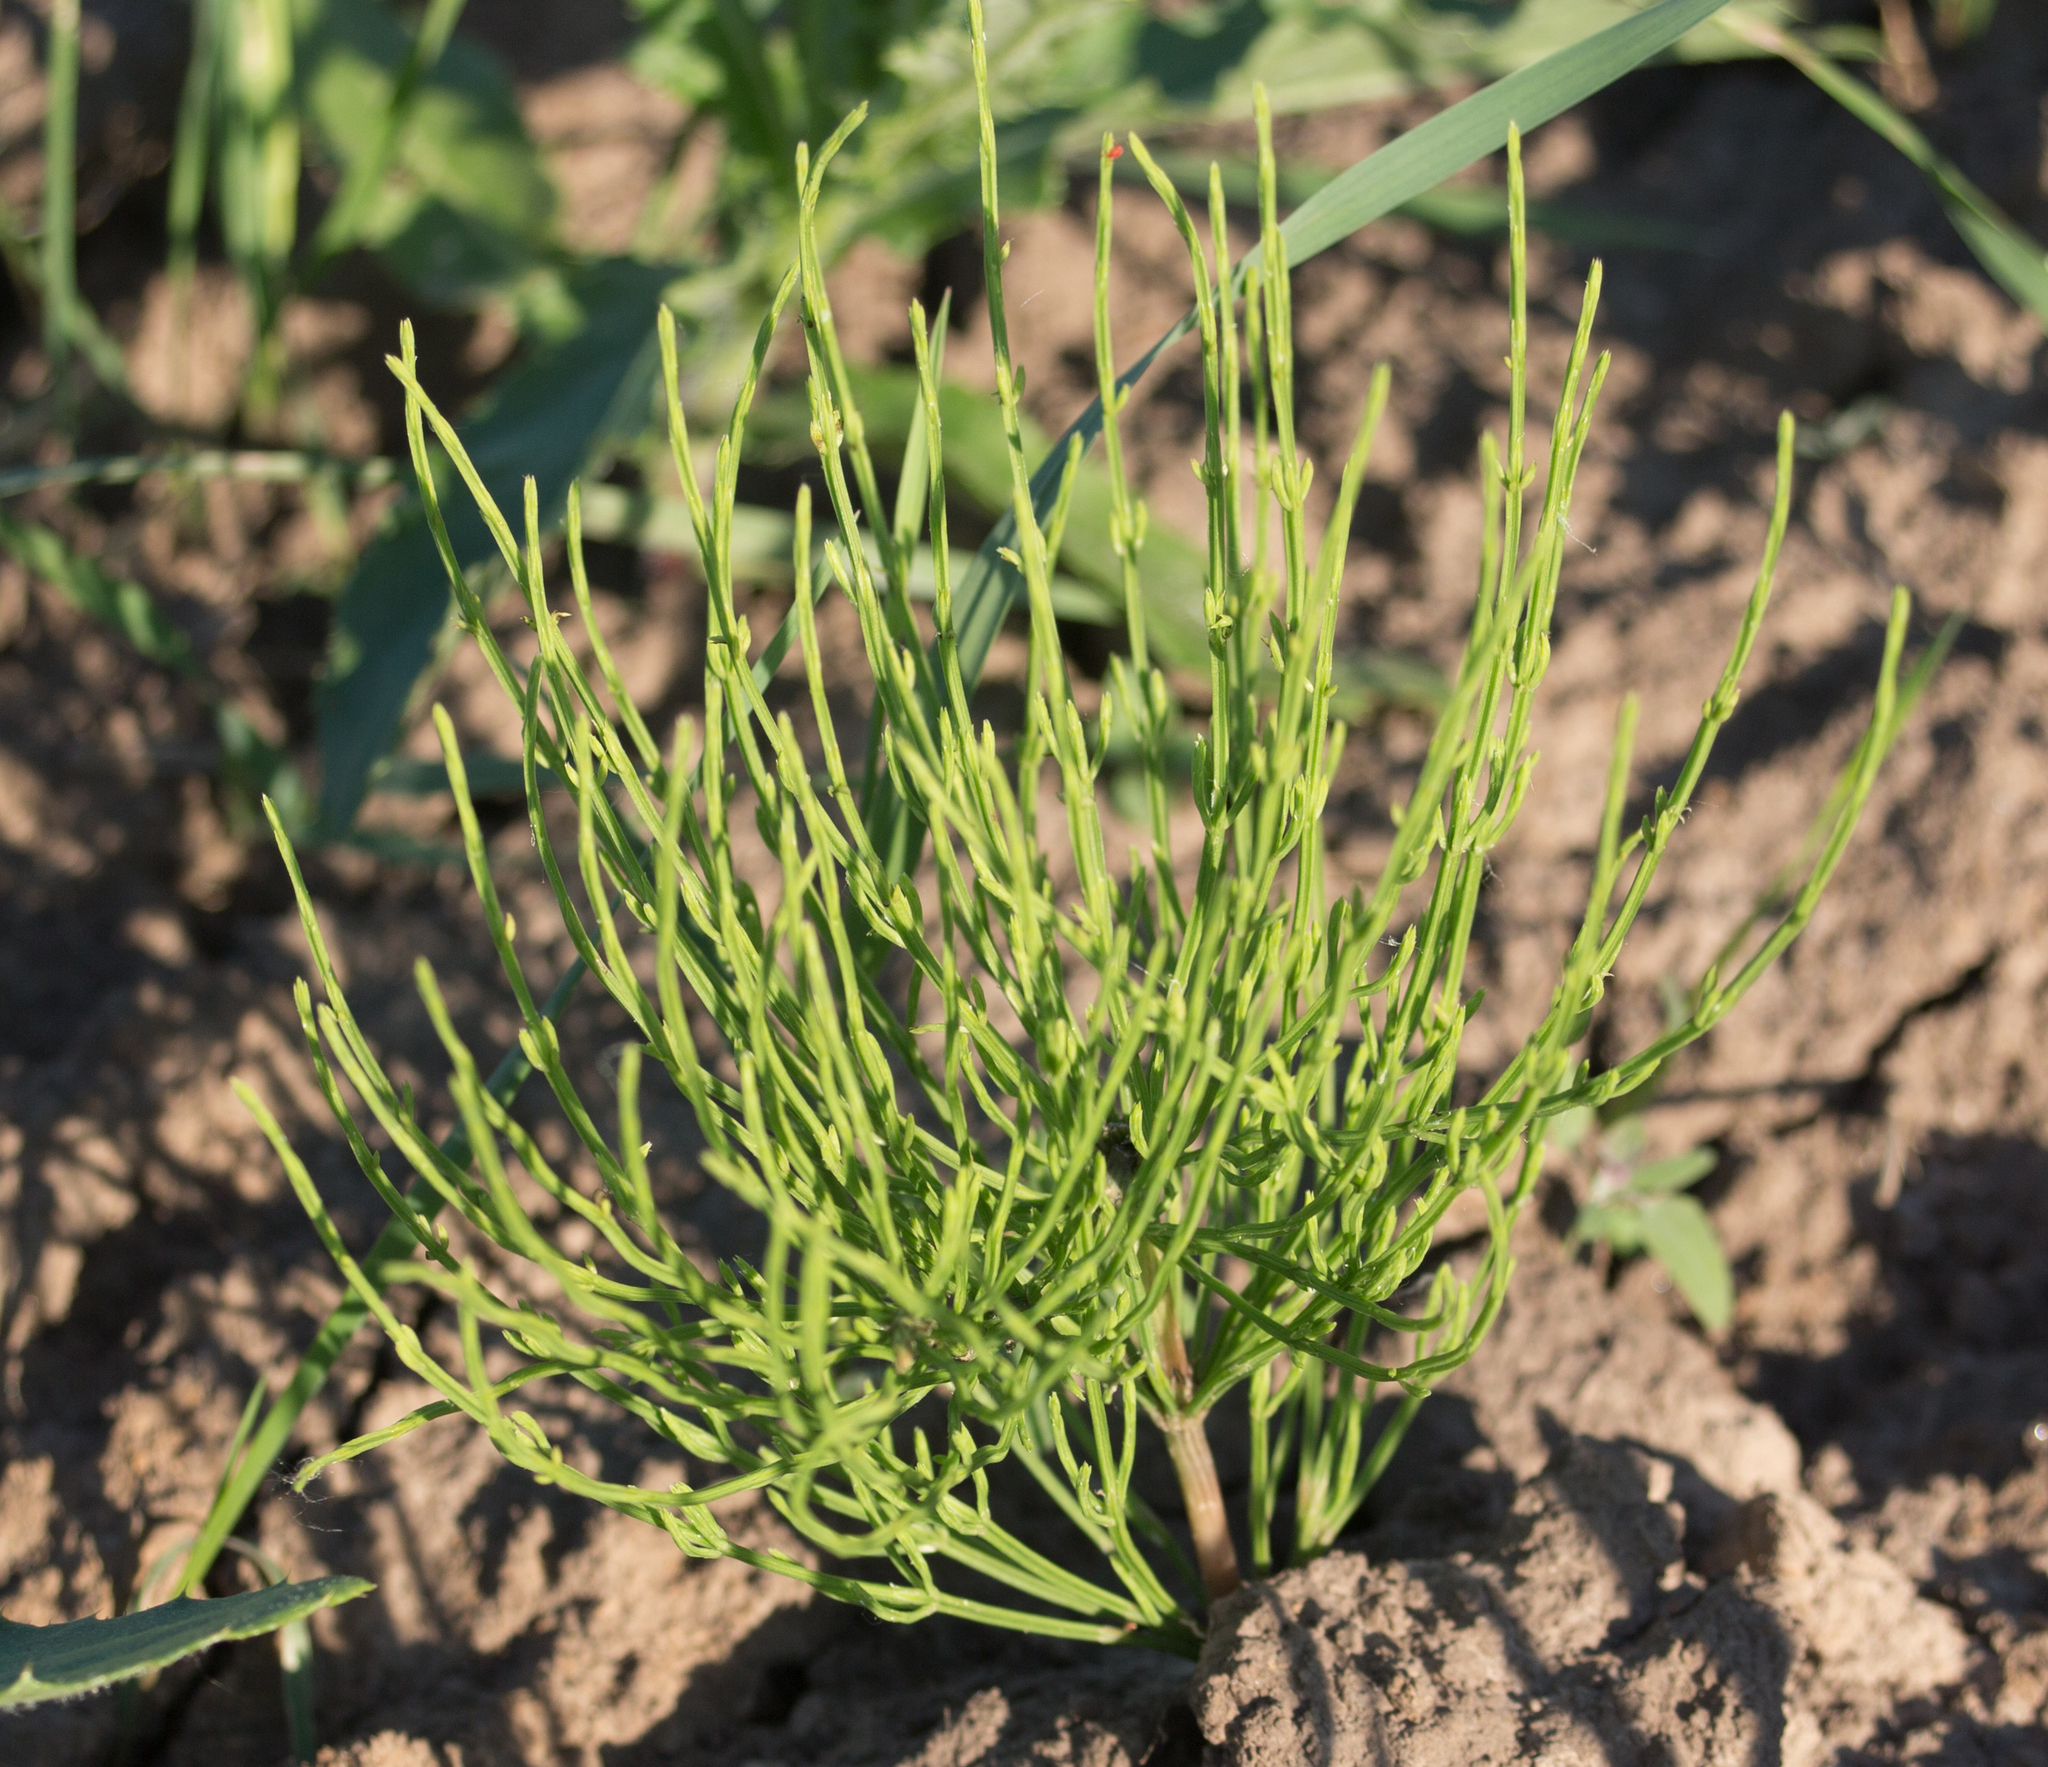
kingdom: Plantae
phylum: Tracheophyta
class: Polypodiopsida
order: Equisetales
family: Equisetaceae
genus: Equisetum
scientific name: Equisetum arvense
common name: Field horsetail
